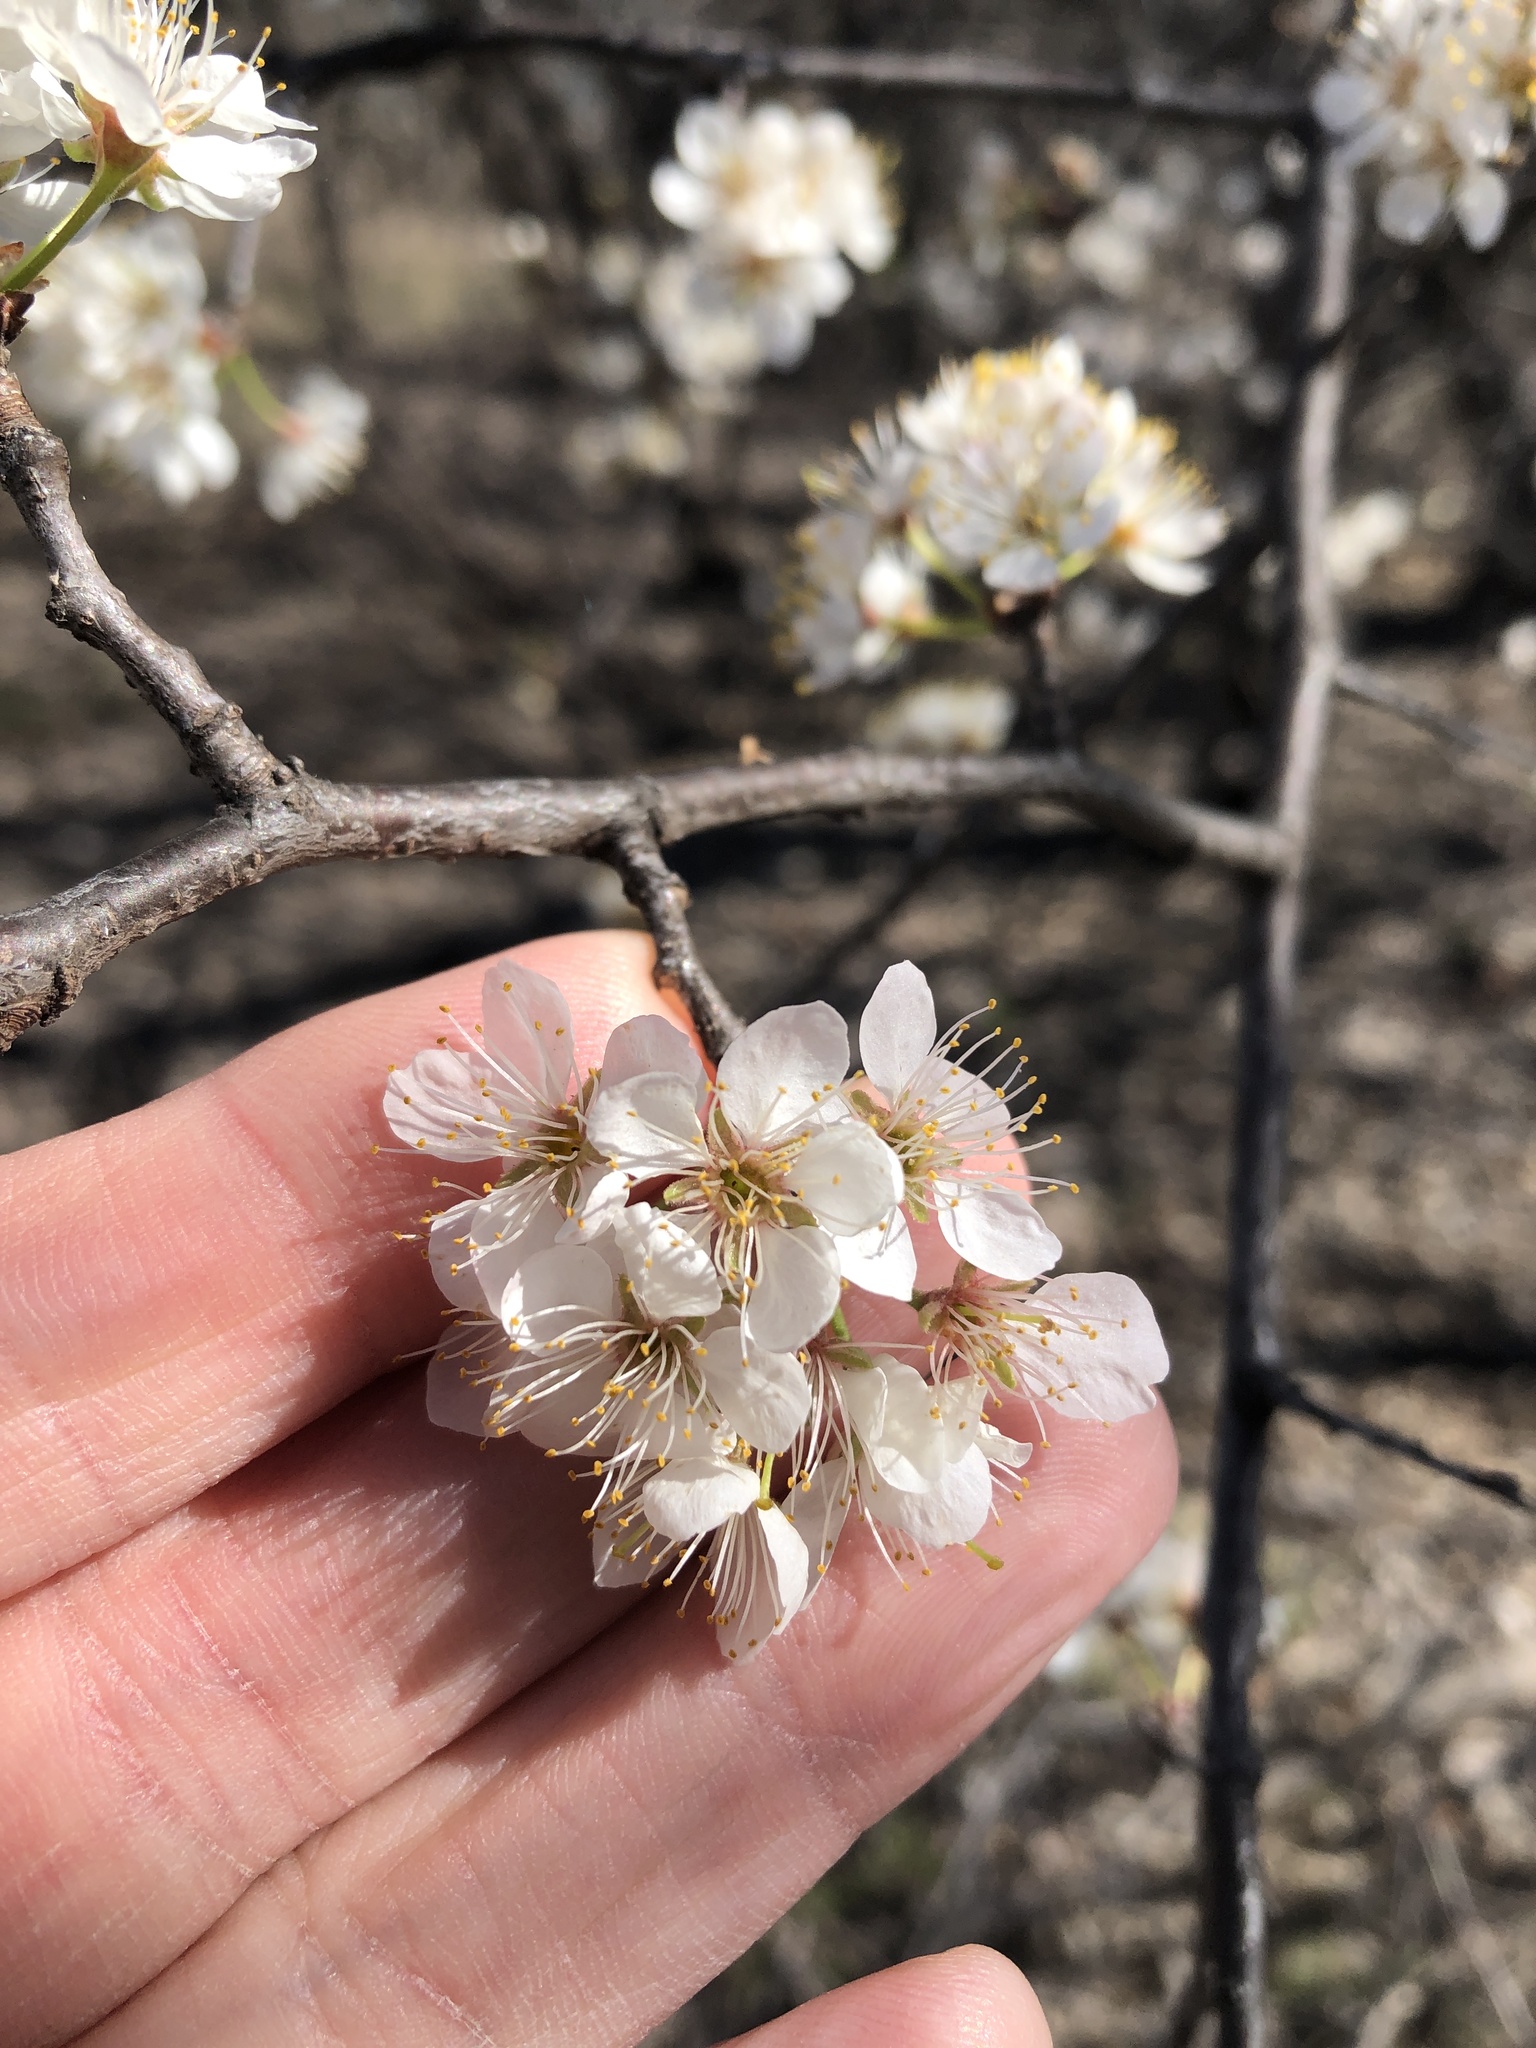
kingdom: Plantae
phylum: Tracheophyta
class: Magnoliopsida
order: Rosales
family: Rosaceae
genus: Prunus
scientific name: Prunus mexicana
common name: Mexican plum
